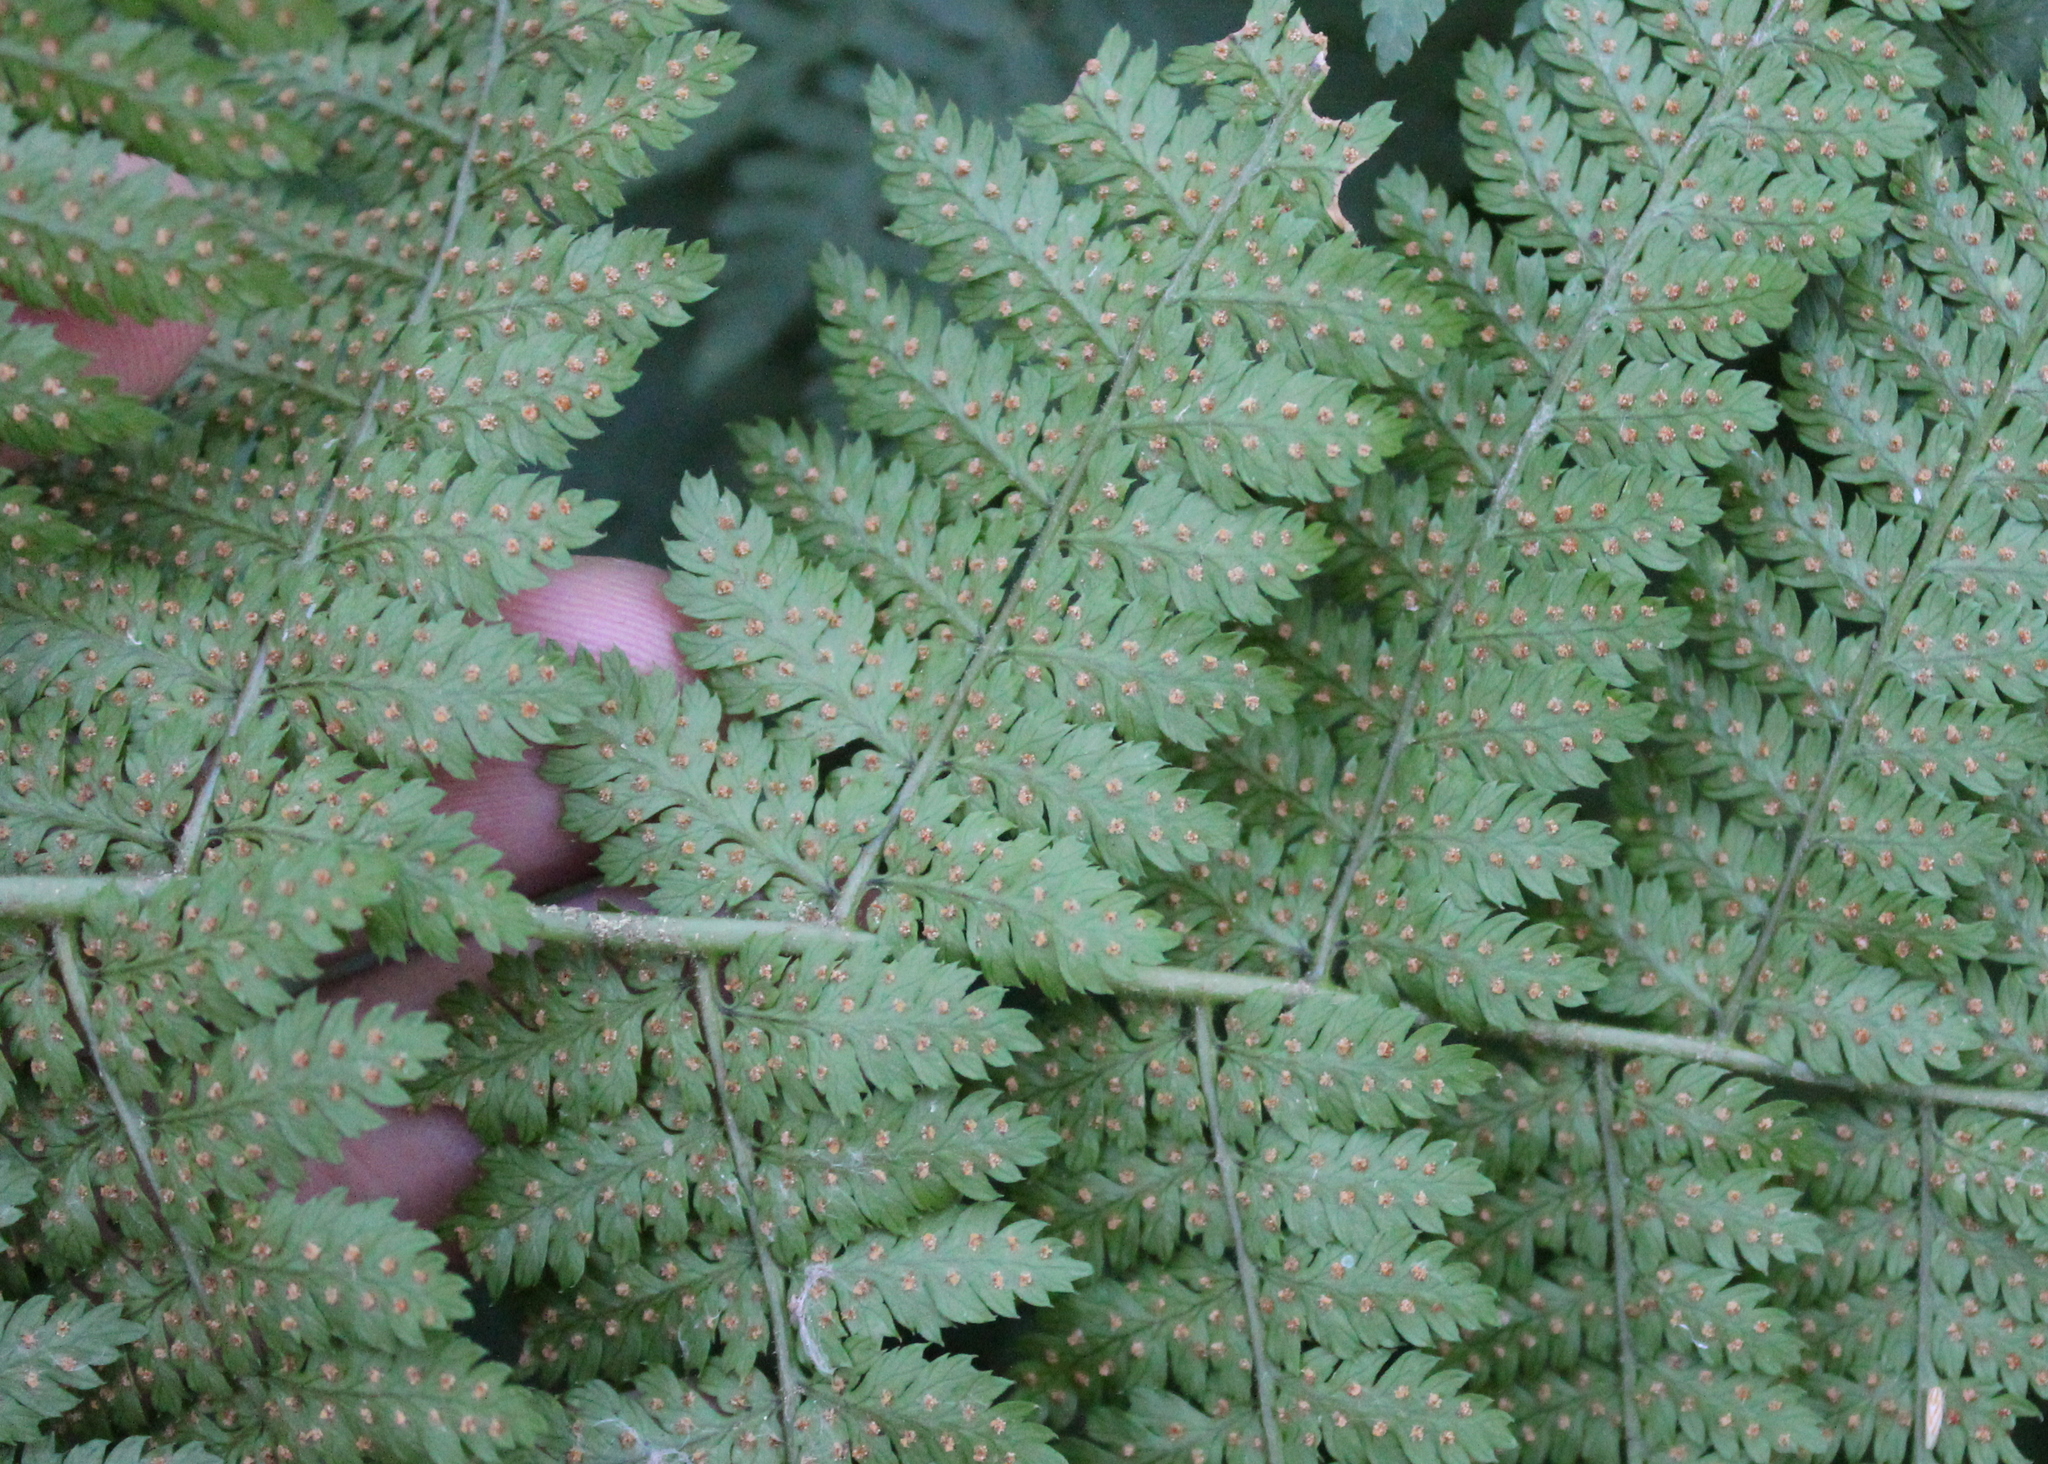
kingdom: Plantae
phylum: Tracheophyta
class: Polypodiopsida
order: Polypodiales
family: Dryopteridaceae
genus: Dryopteris
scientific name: Dryopteris intermedia
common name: Evergreen wood fern
